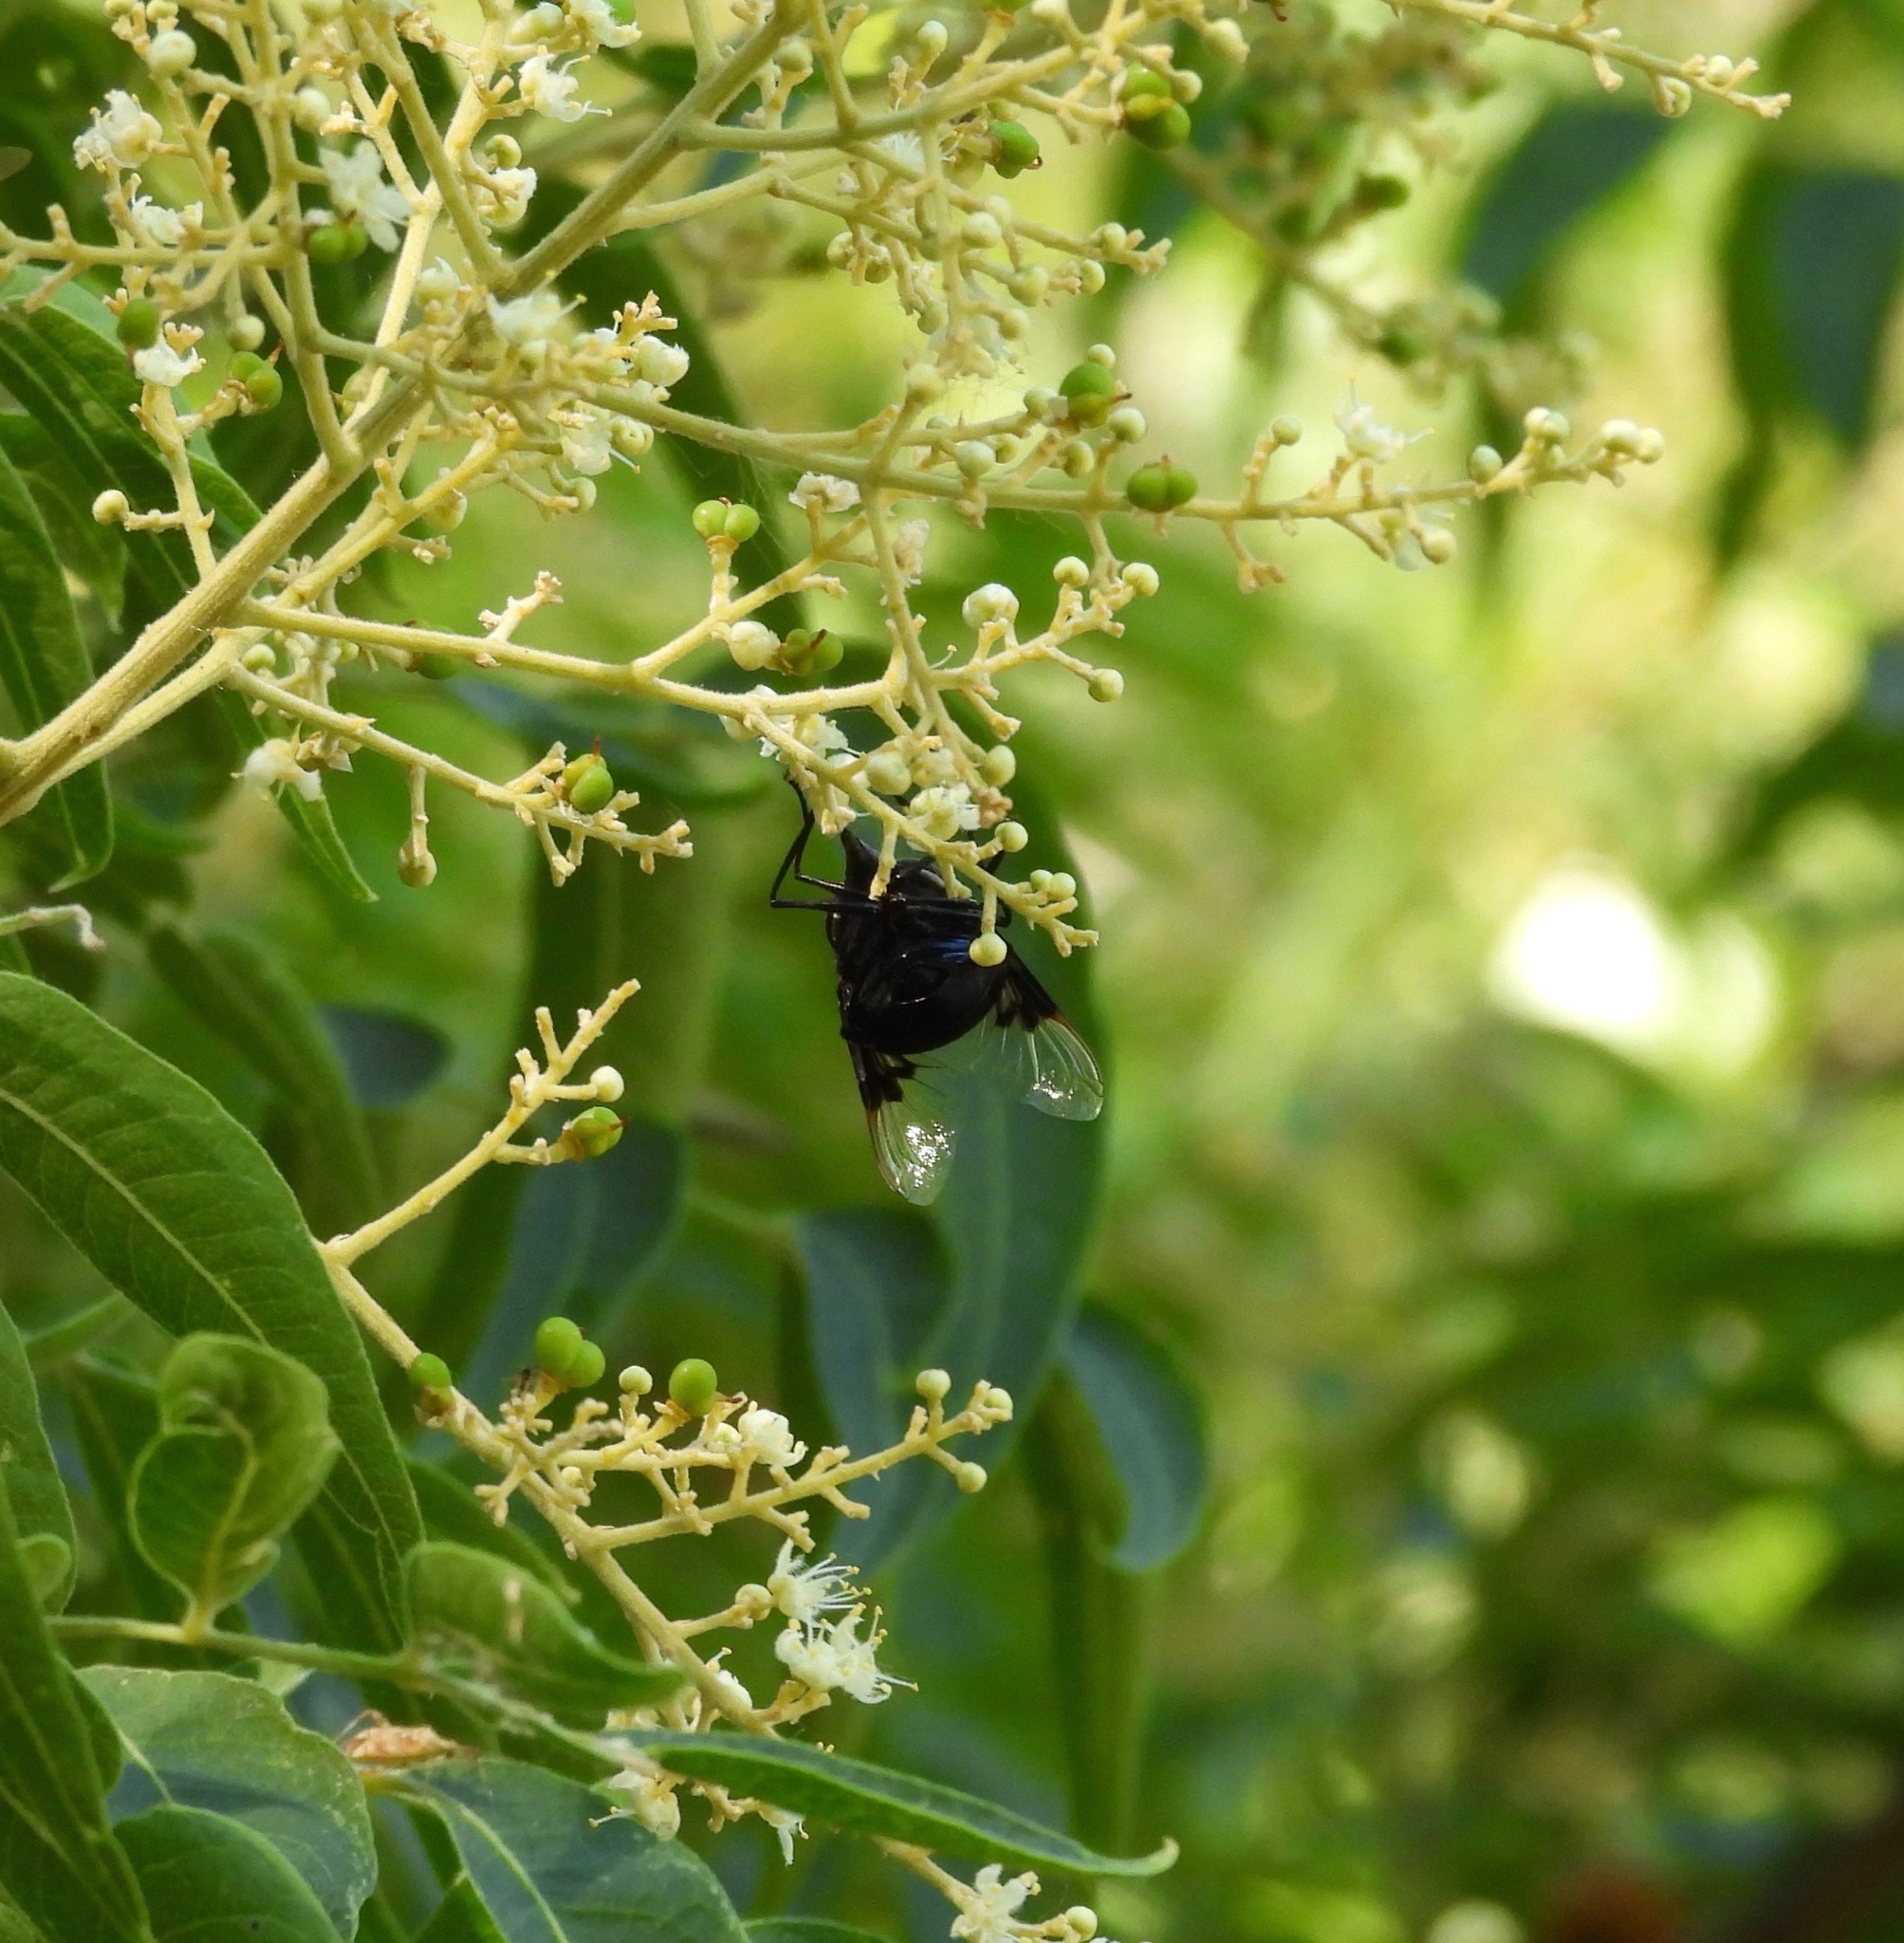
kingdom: Animalia
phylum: Arthropoda
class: Insecta
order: Diptera
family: Syrphidae
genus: Copestylum
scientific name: Copestylum mexicanum
